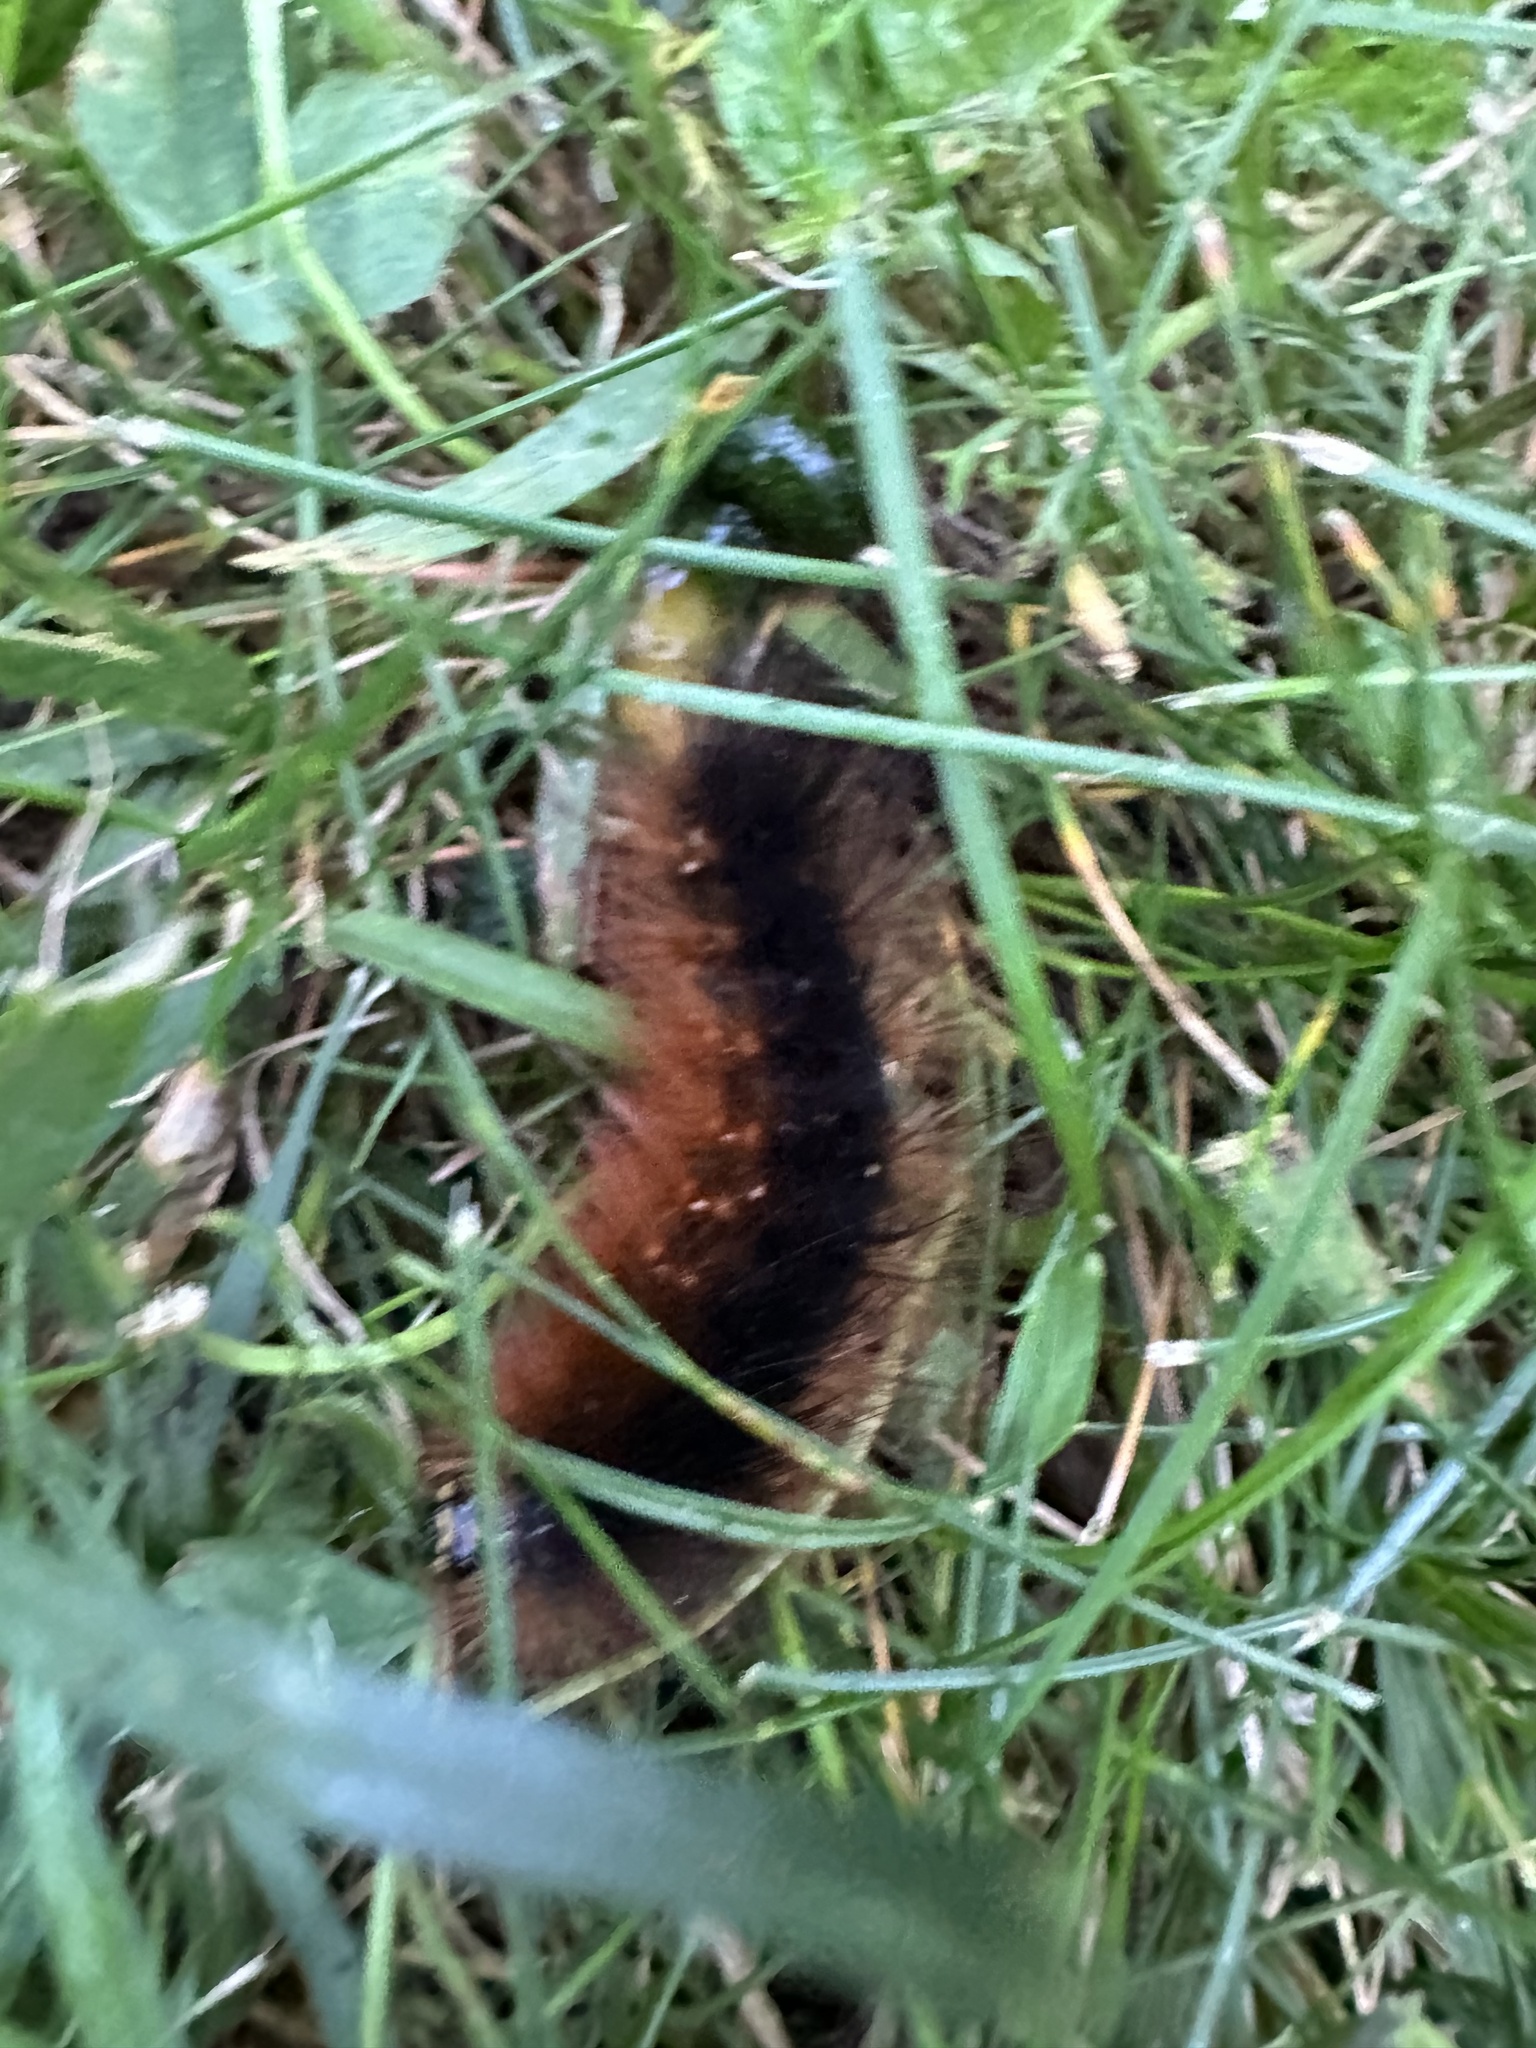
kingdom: Animalia
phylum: Arthropoda
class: Insecta
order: Lepidoptera
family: Erebidae
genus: Estigmene
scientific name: Estigmene acrea
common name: Salt marsh moth
